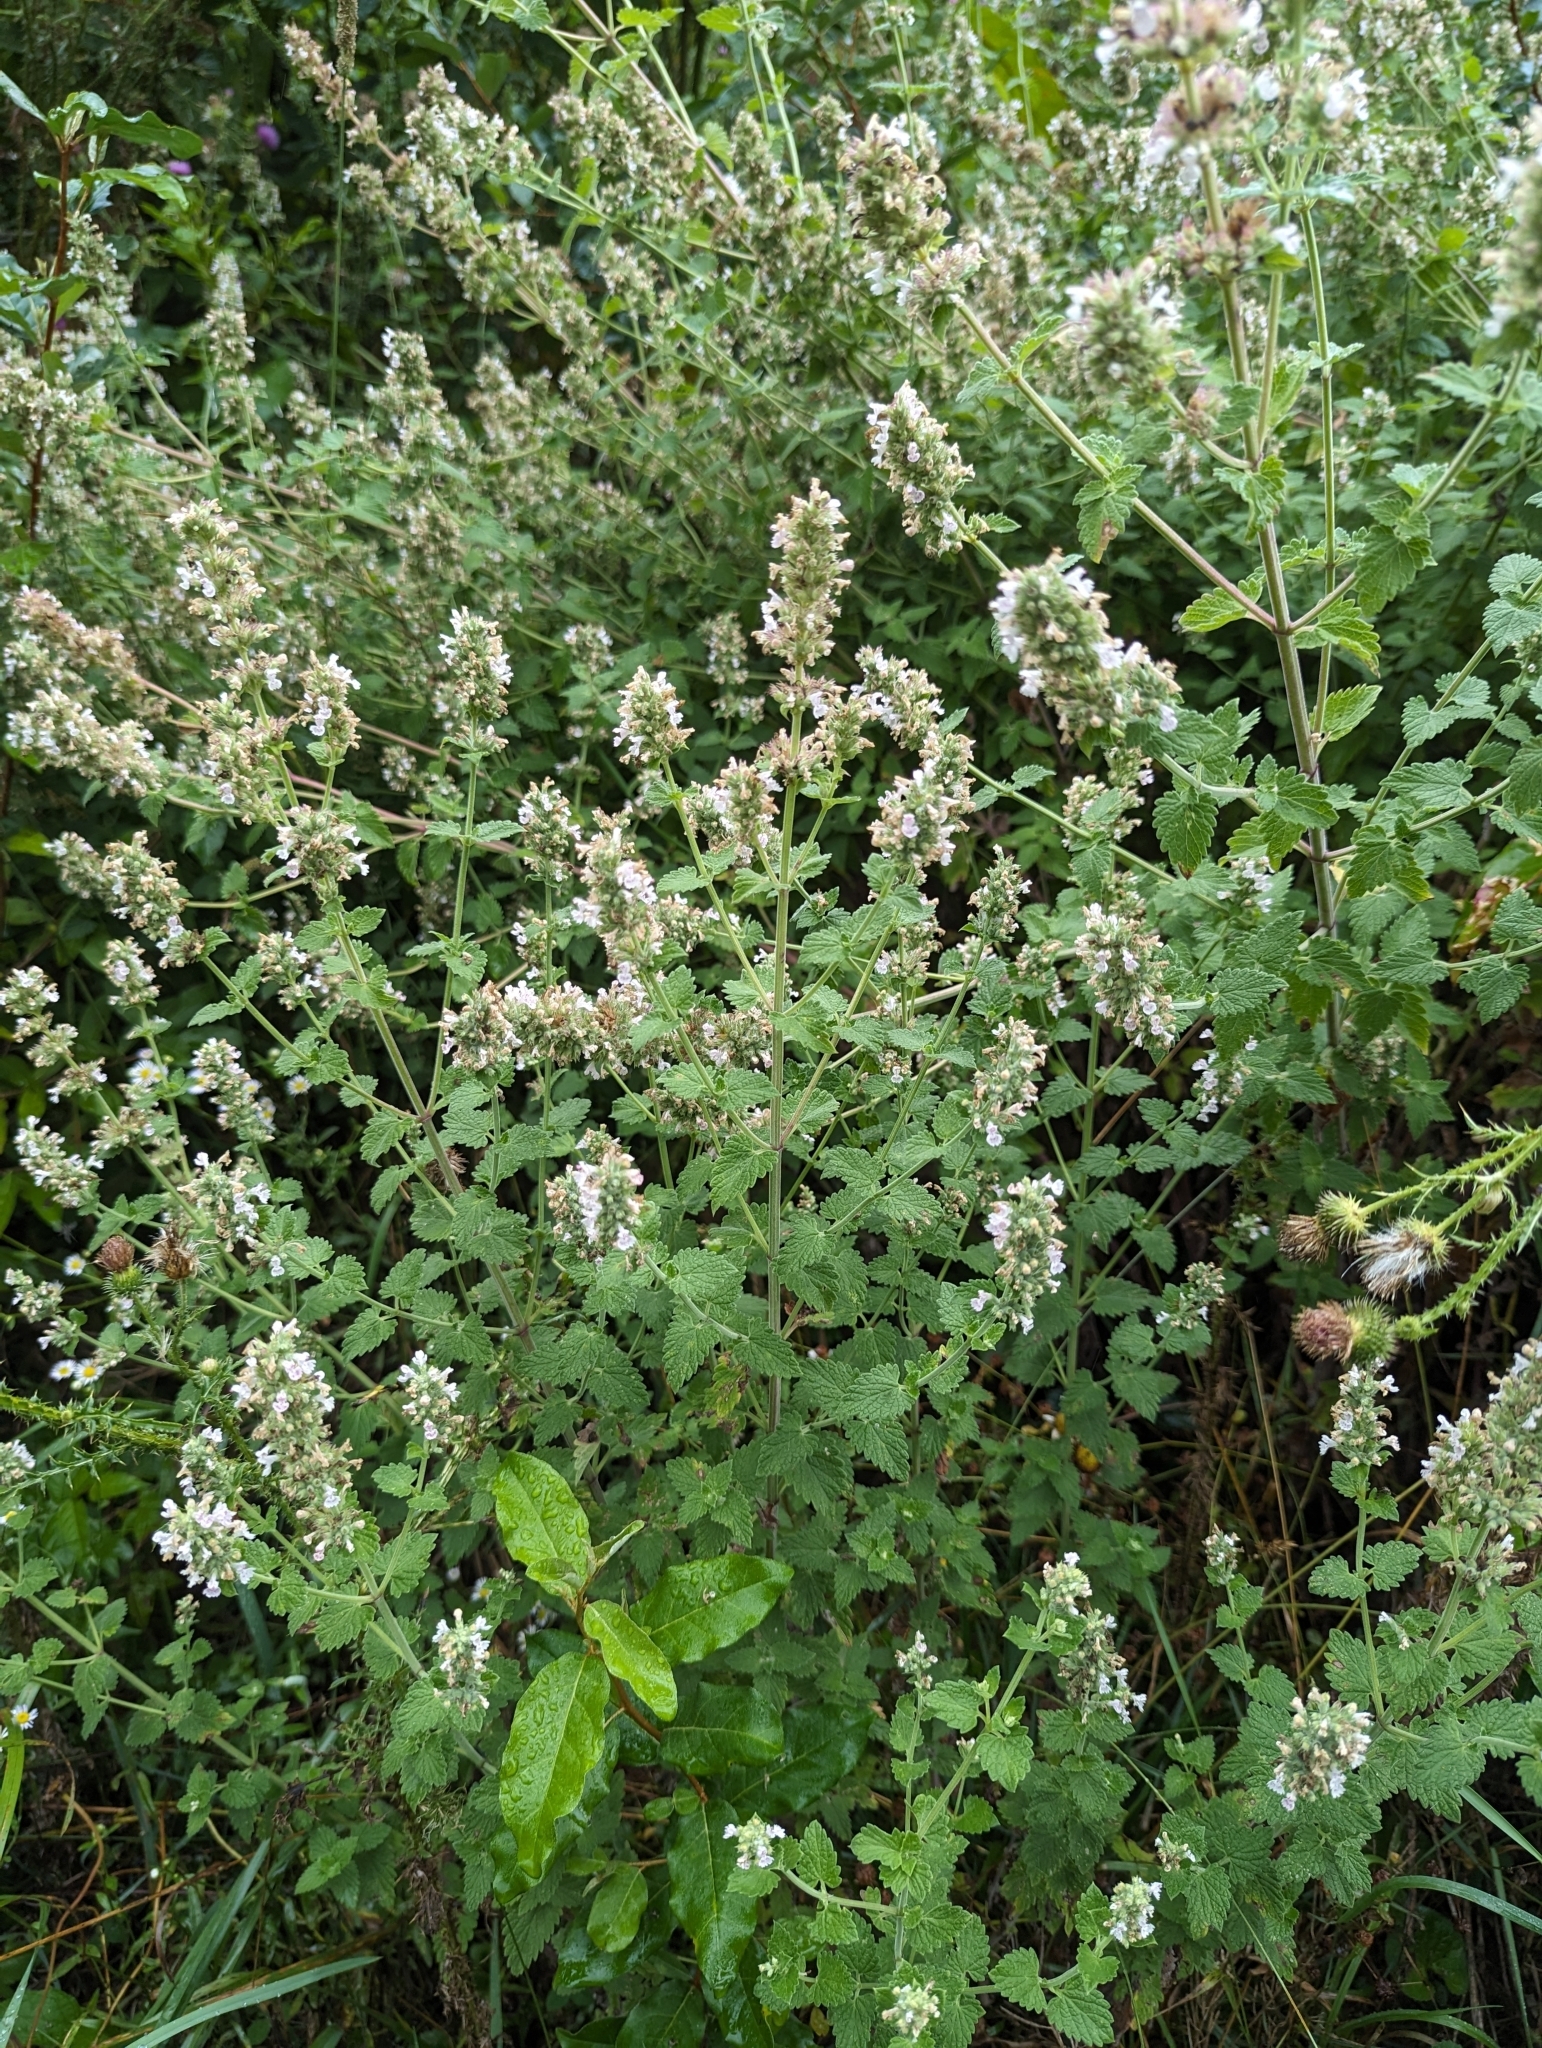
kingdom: Plantae
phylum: Tracheophyta
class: Magnoliopsida
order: Lamiales
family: Lamiaceae
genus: Nepeta
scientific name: Nepeta cataria
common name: Catnip
